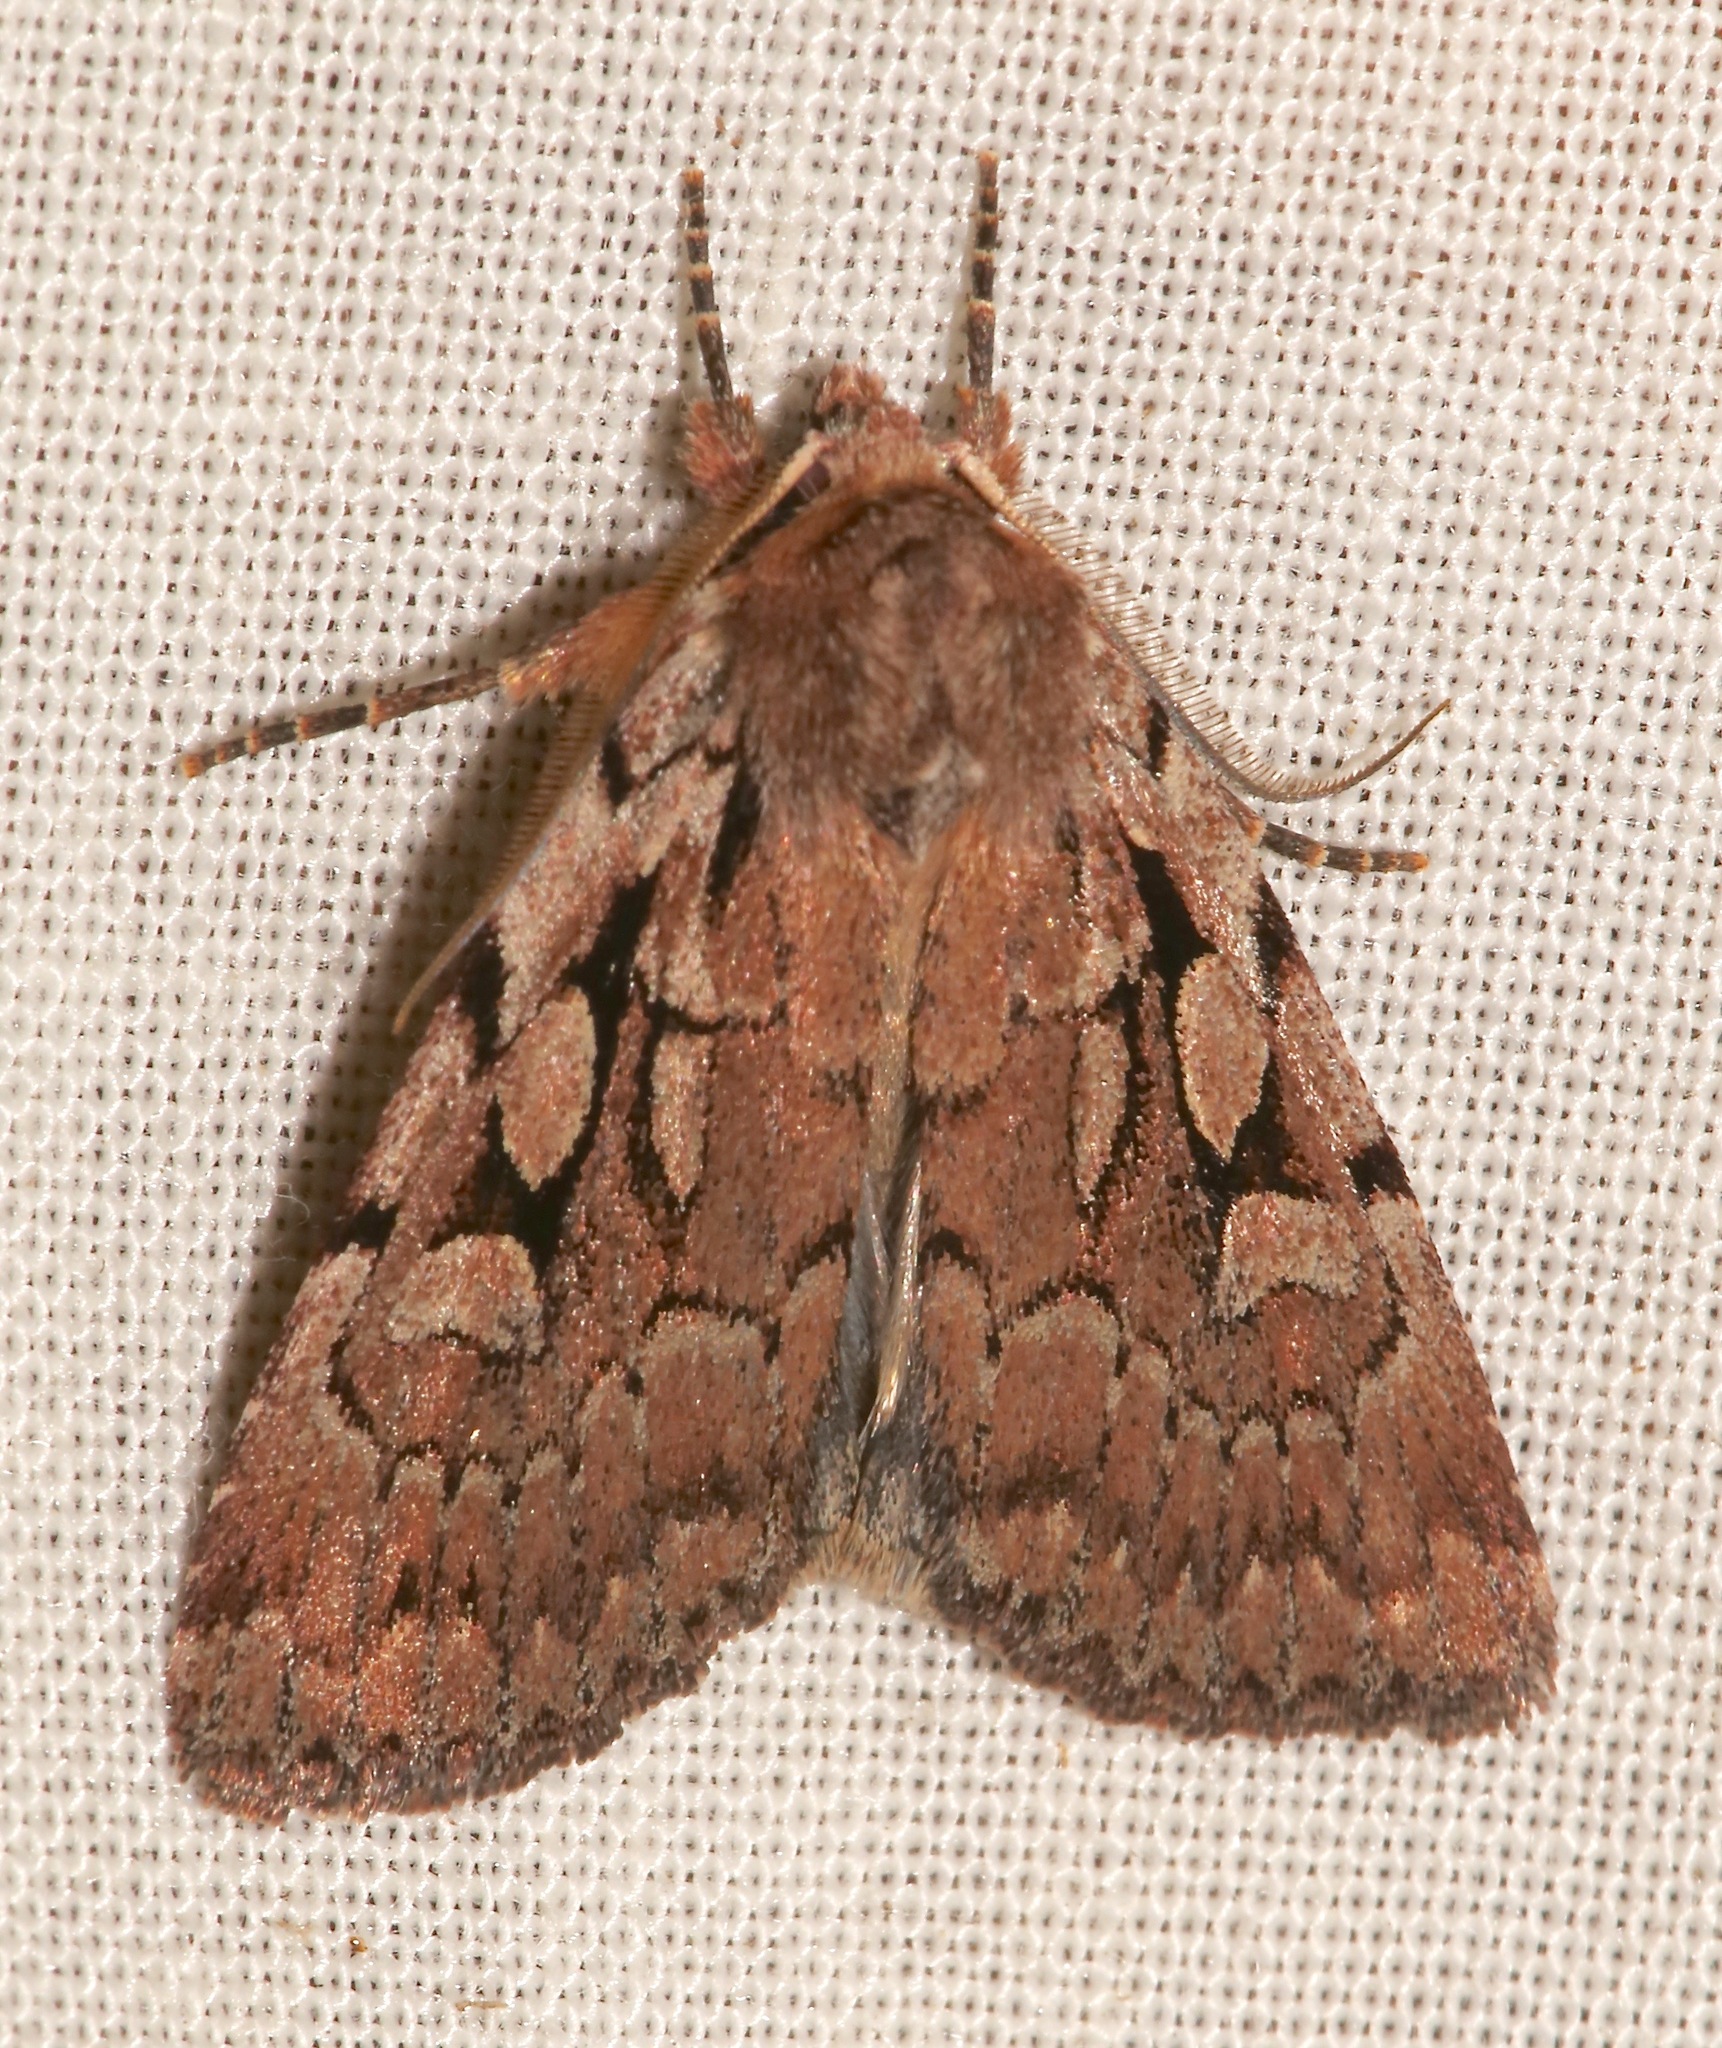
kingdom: Animalia
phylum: Arthropoda
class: Insecta
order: Lepidoptera
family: Noctuidae
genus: Xestia
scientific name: Xestia praevia
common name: Praevia dart
